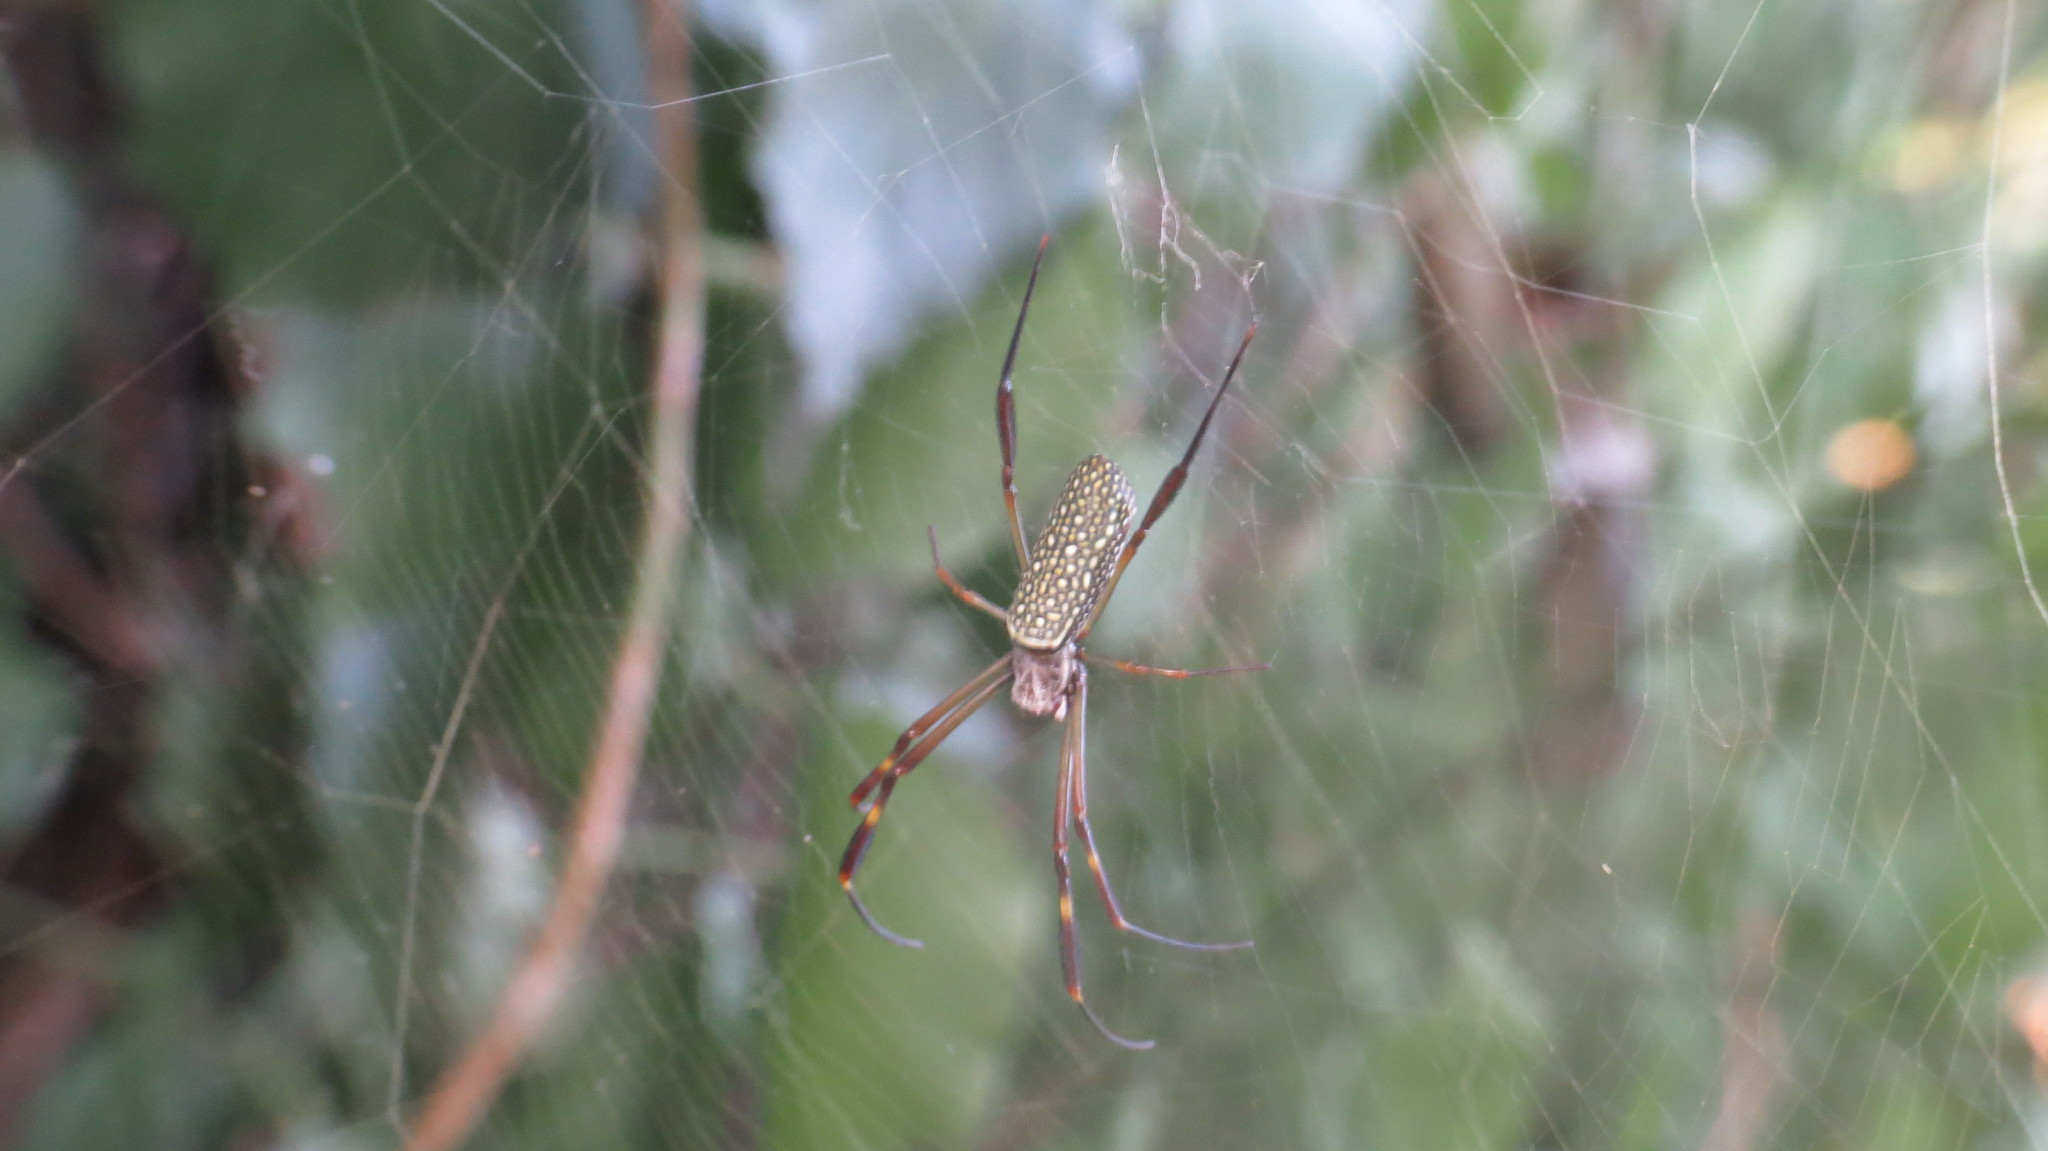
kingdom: Animalia
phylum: Arthropoda
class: Arachnida
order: Araneae
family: Araneidae
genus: Trichonephila
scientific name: Trichonephila clavipes
